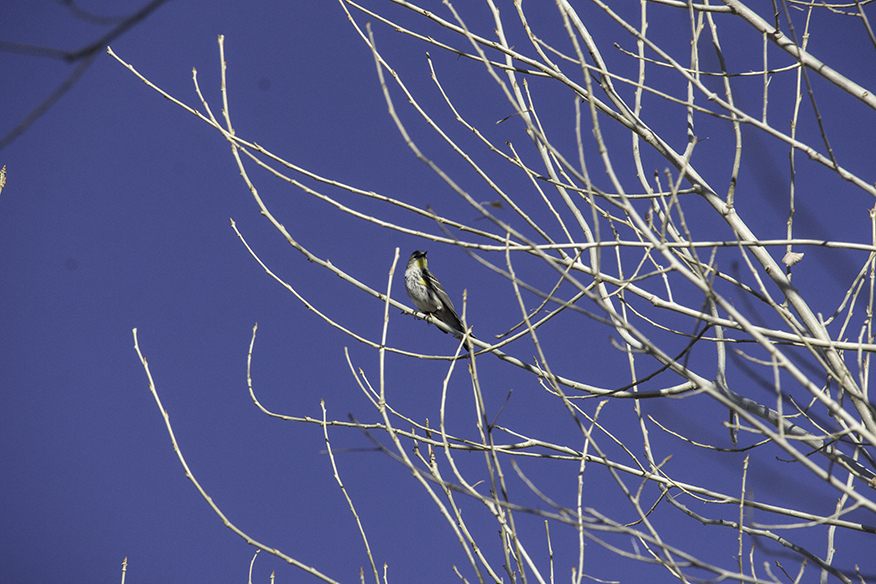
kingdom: Animalia
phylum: Chordata
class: Aves
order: Passeriformes
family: Parulidae
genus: Setophaga
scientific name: Setophaga coronata
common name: Myrtle warbler
